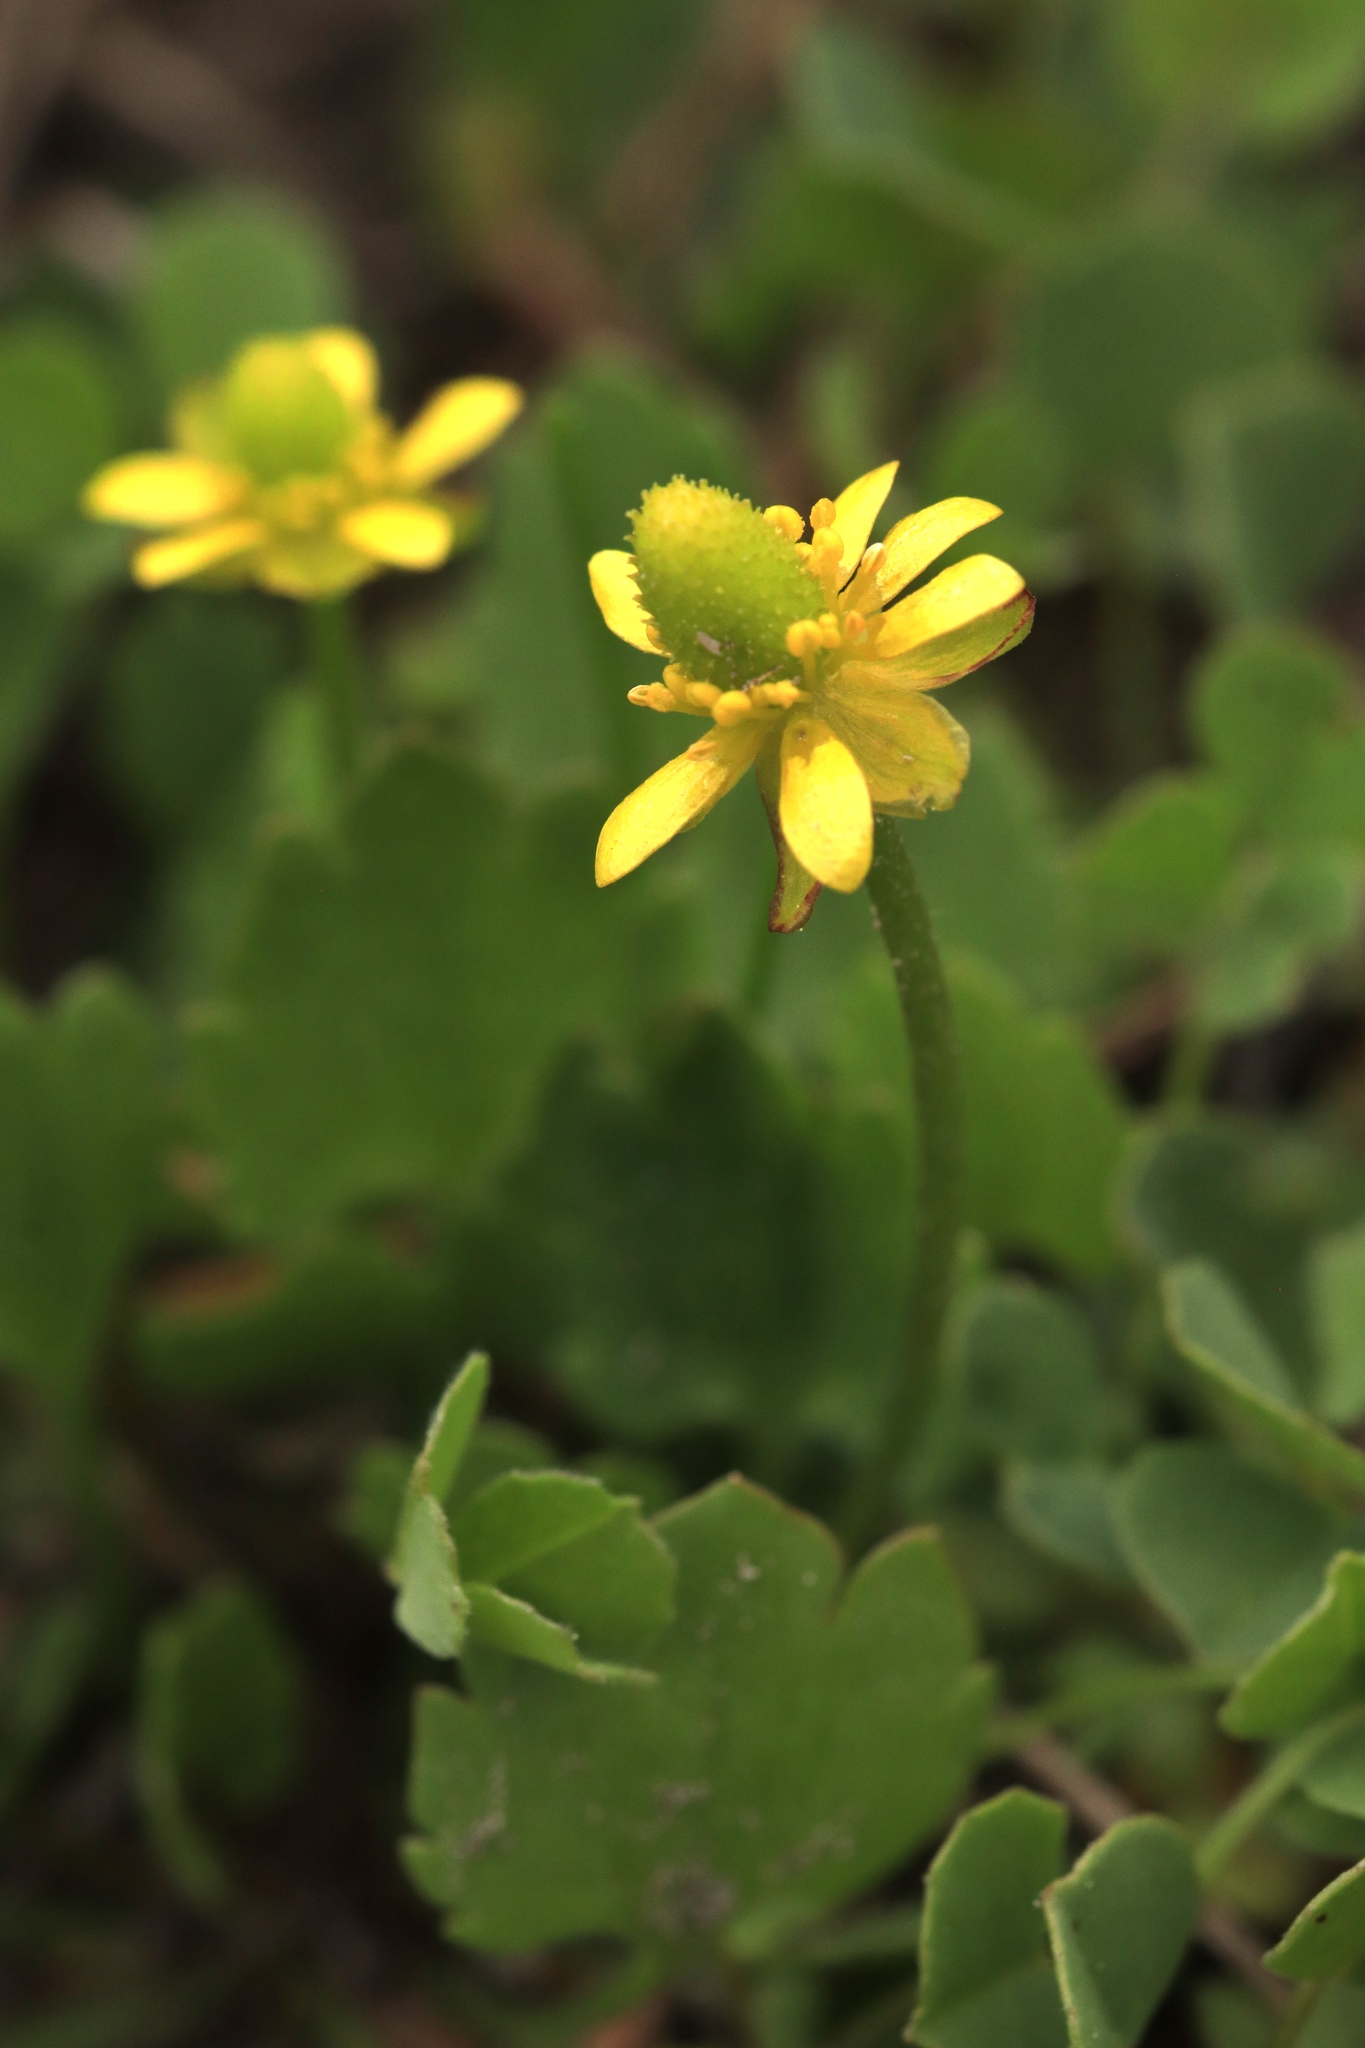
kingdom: Plantae
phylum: Tracheophyta
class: Magnoliopsida
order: Ranunculales
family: Ranunculaceae
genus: Halerpestes
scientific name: Halerpestes cymbalaria
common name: Seaside crowfoot
